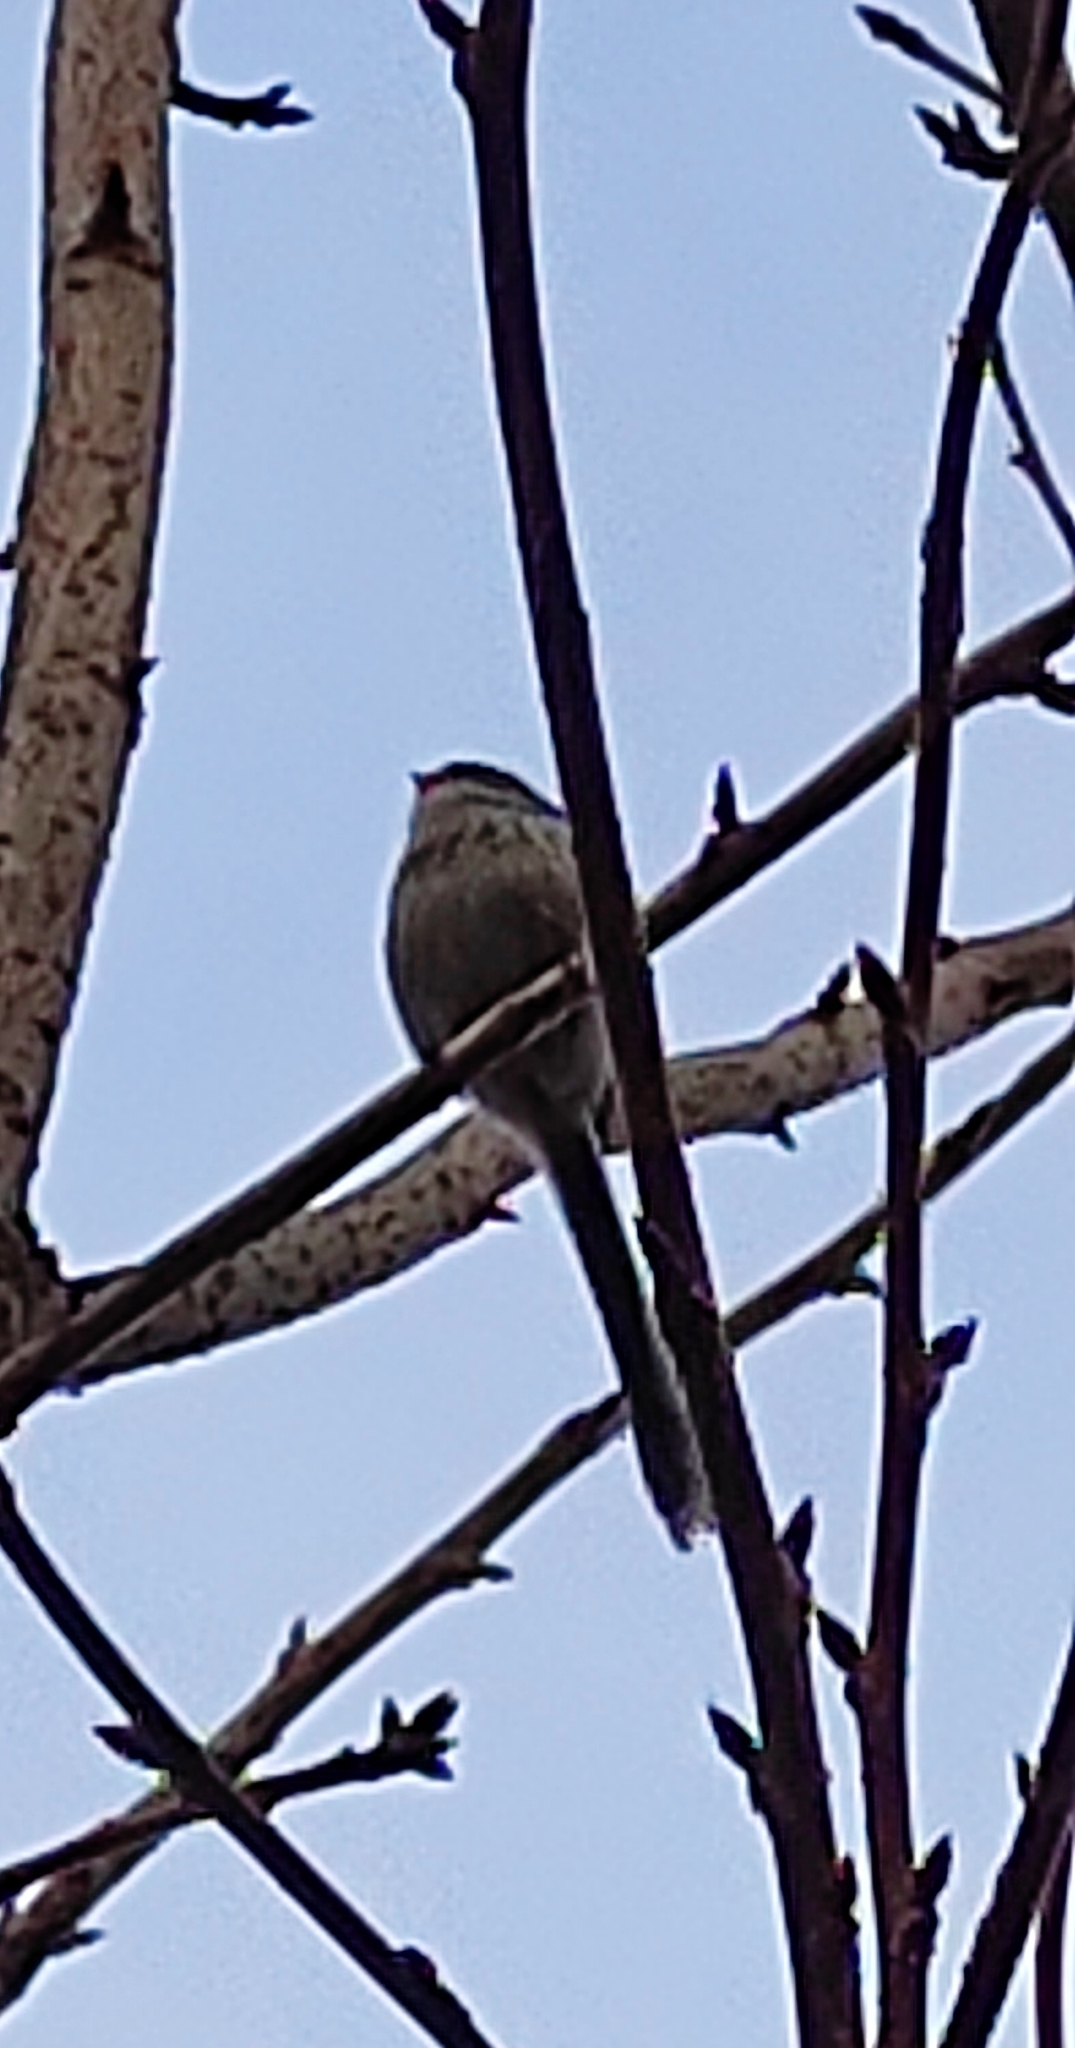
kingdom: Animalia
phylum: Chordata
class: Aves
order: Passeriformes
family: Aegithalidae
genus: Aegithalos
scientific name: Aegithalos caudatus
